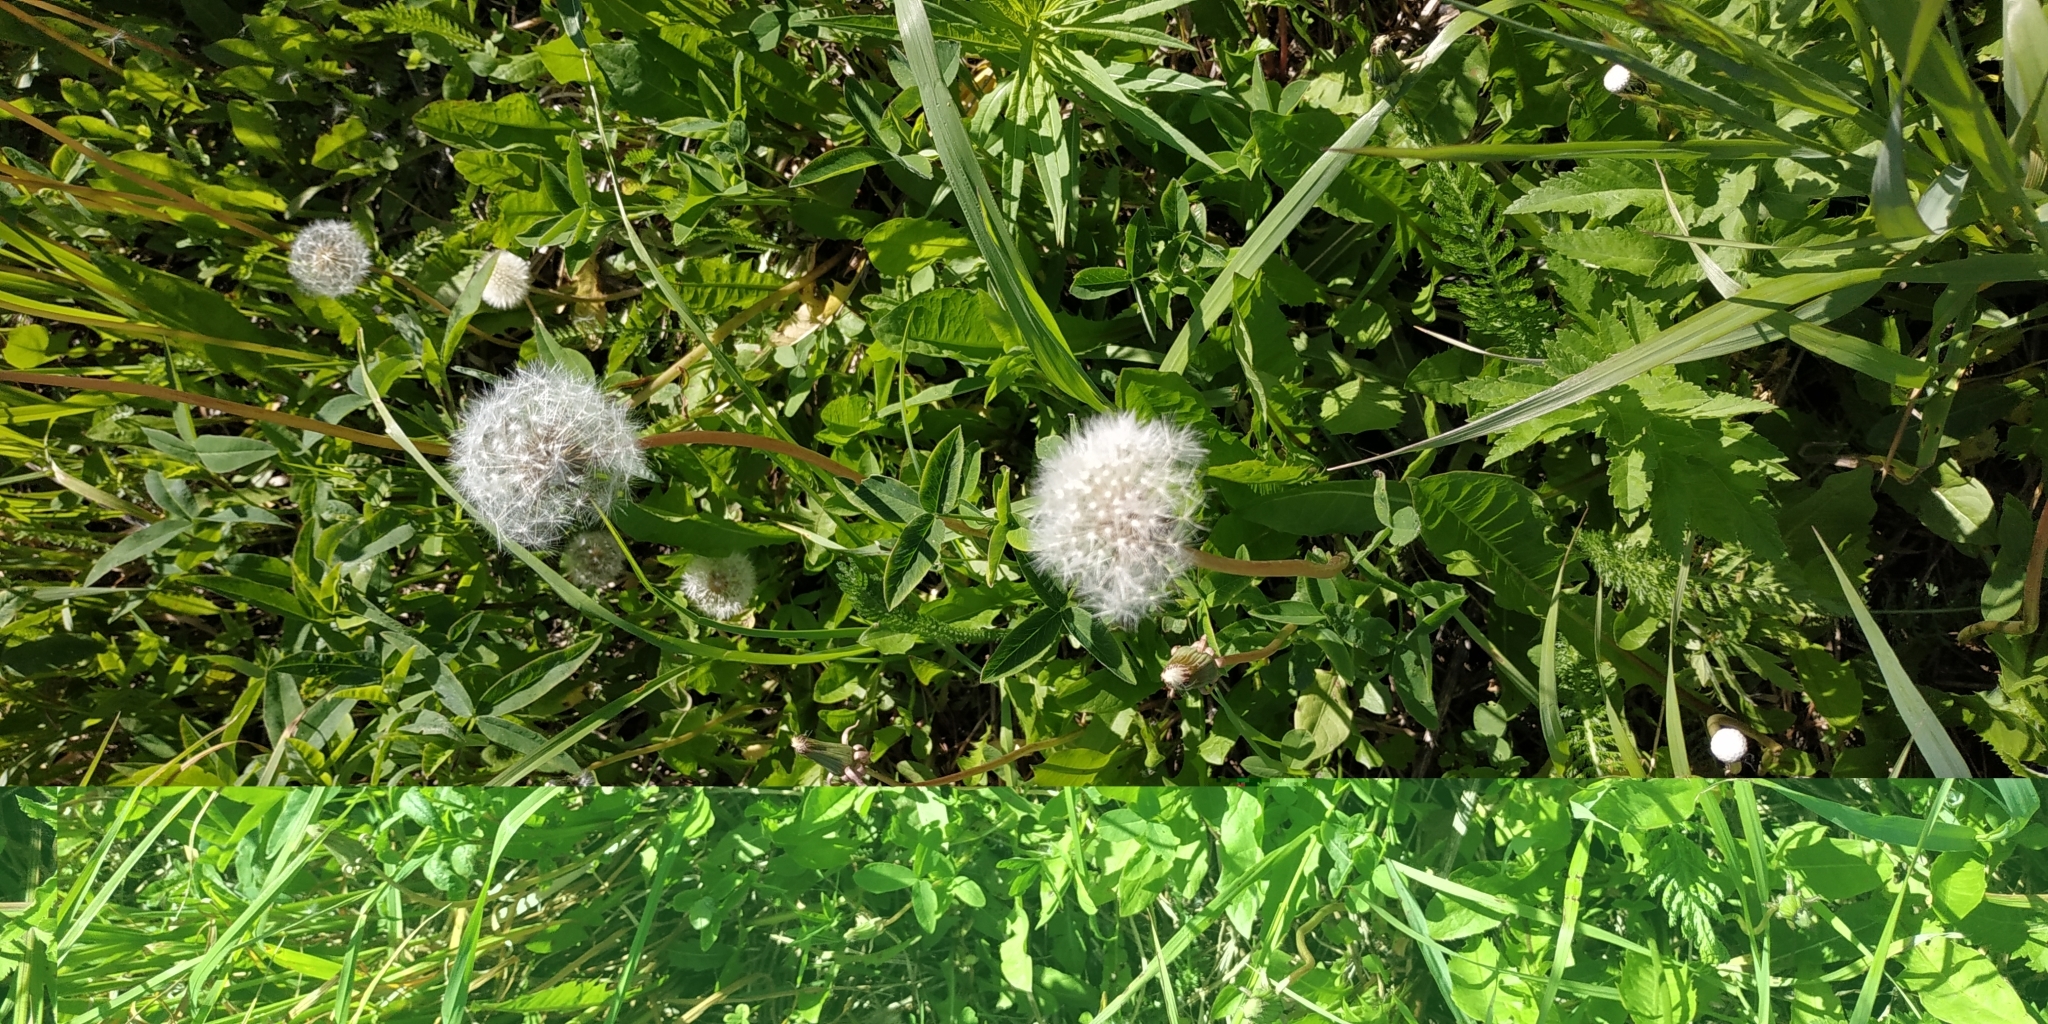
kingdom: Plantae
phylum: Tracheophyta
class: Magnoliopsida
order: Asterales
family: Asteraceae
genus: Taraxacum
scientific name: Taraxacum officinale
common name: Common dandelion
